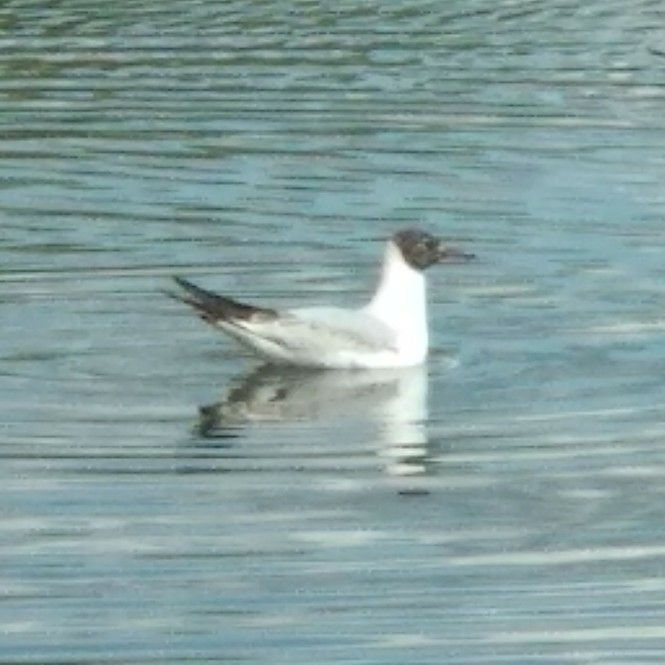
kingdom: Animalia
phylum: Chordata
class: Aves
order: Charadriiformes
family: Laridae
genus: Chroicocephalus
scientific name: Chroicocephalus ridibundus
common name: Black-headed gull
